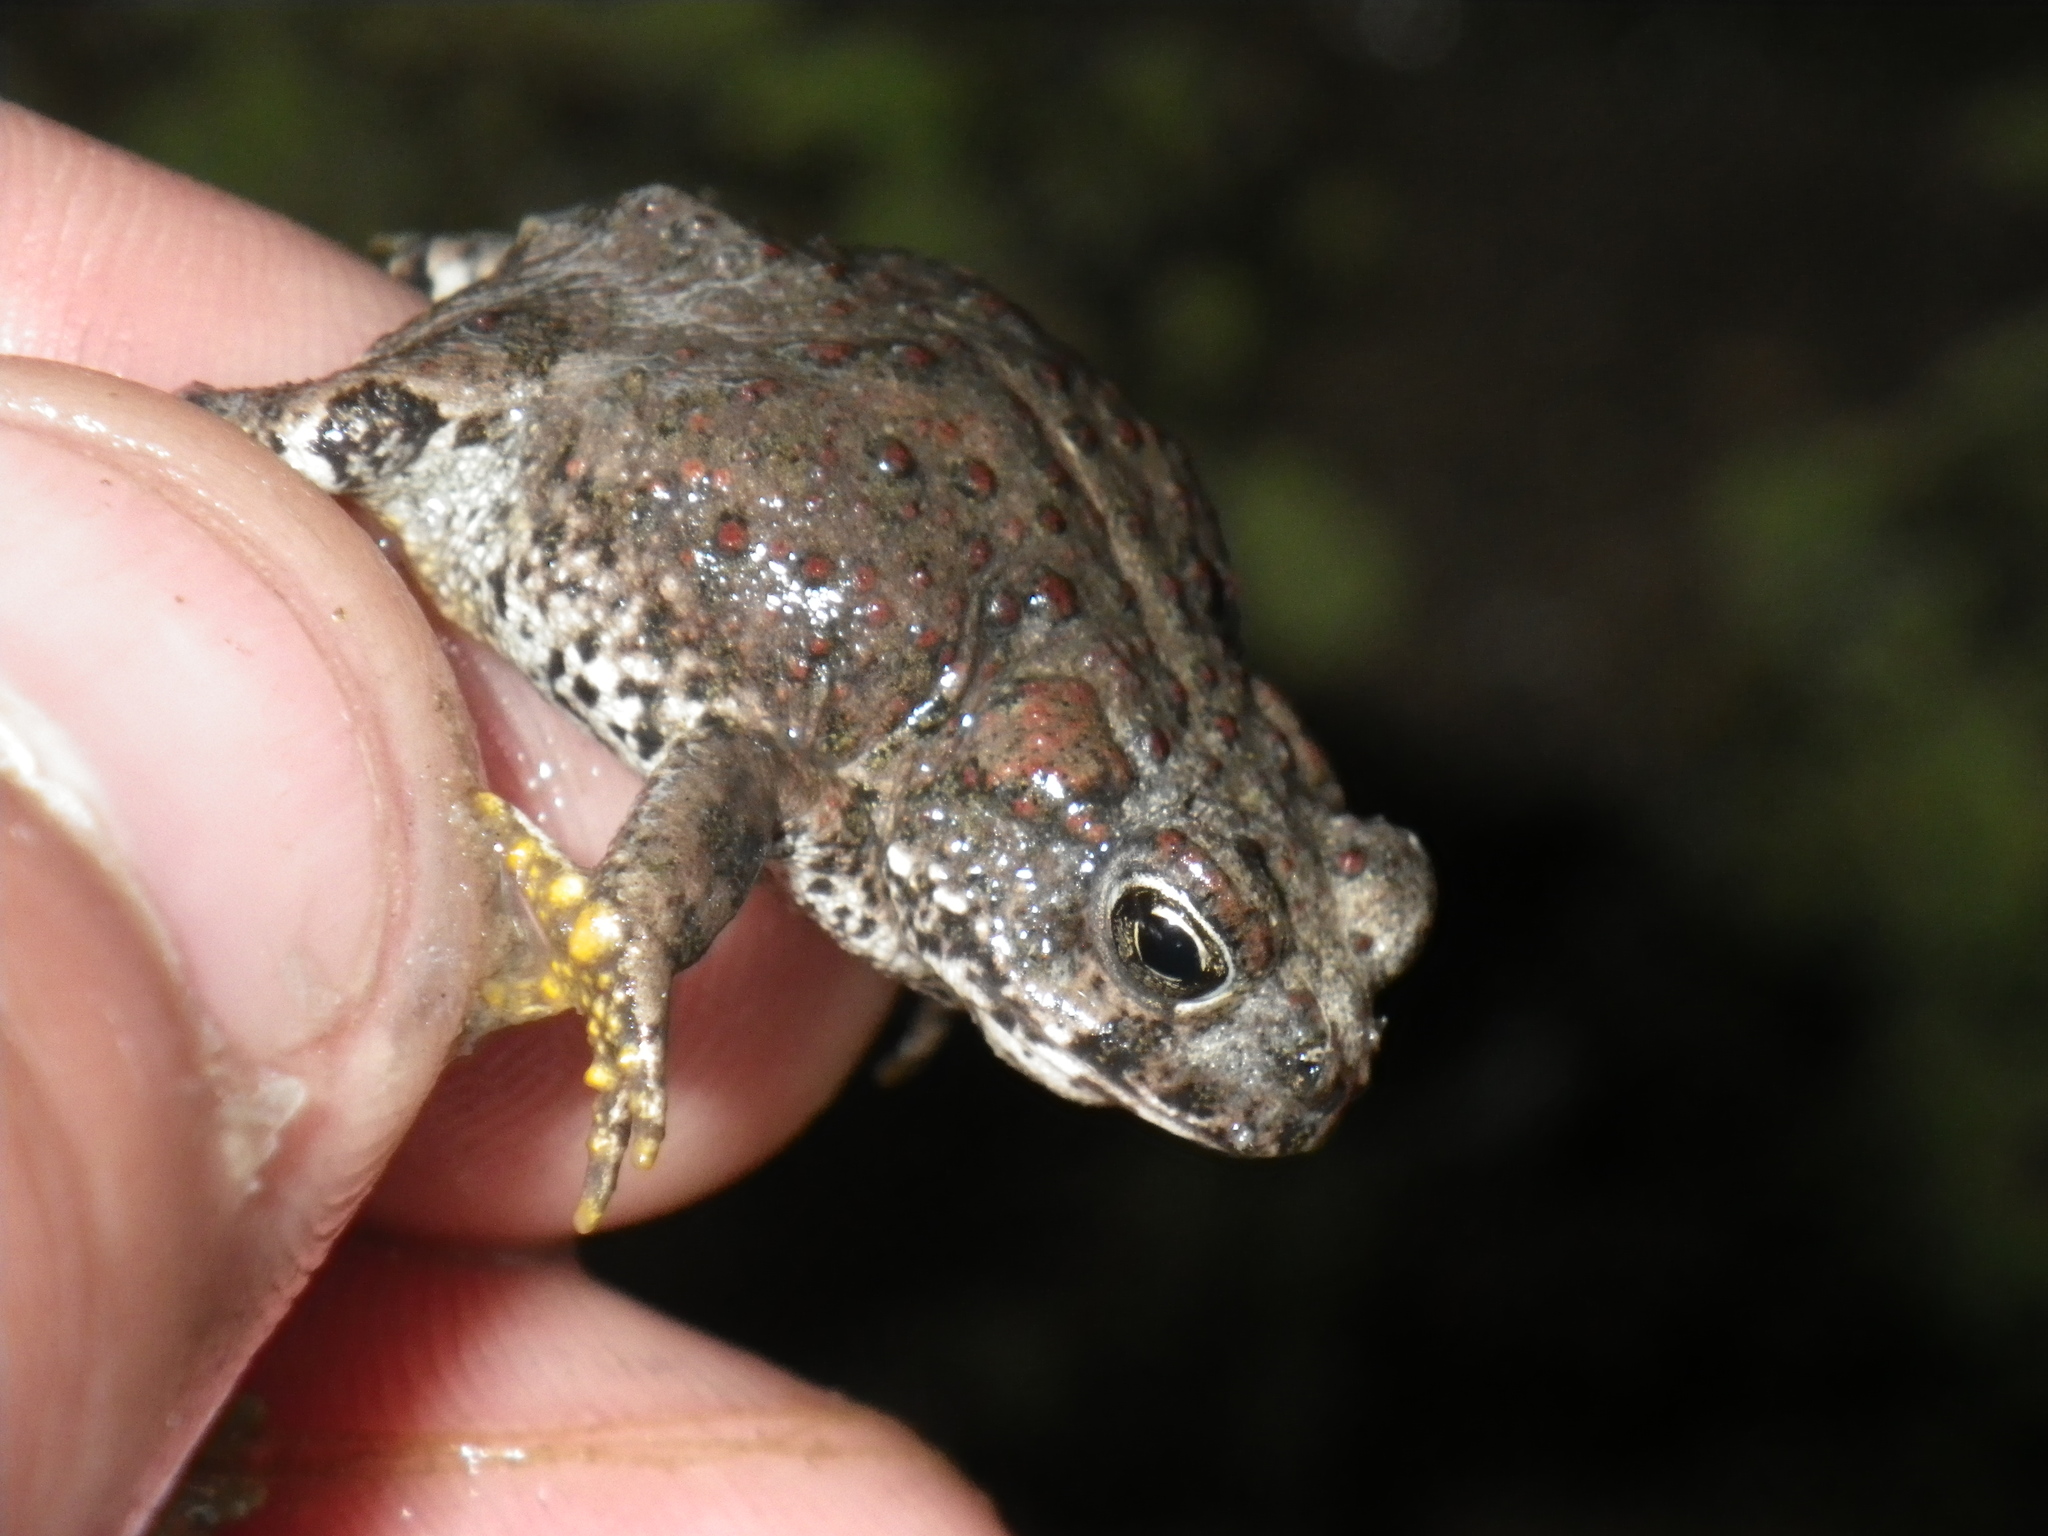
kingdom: Animalia
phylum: Chordata
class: Amphibia
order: Anura
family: Bufonidae
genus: Anaxyrus
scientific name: Anaxyrus boreas
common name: Western toad
